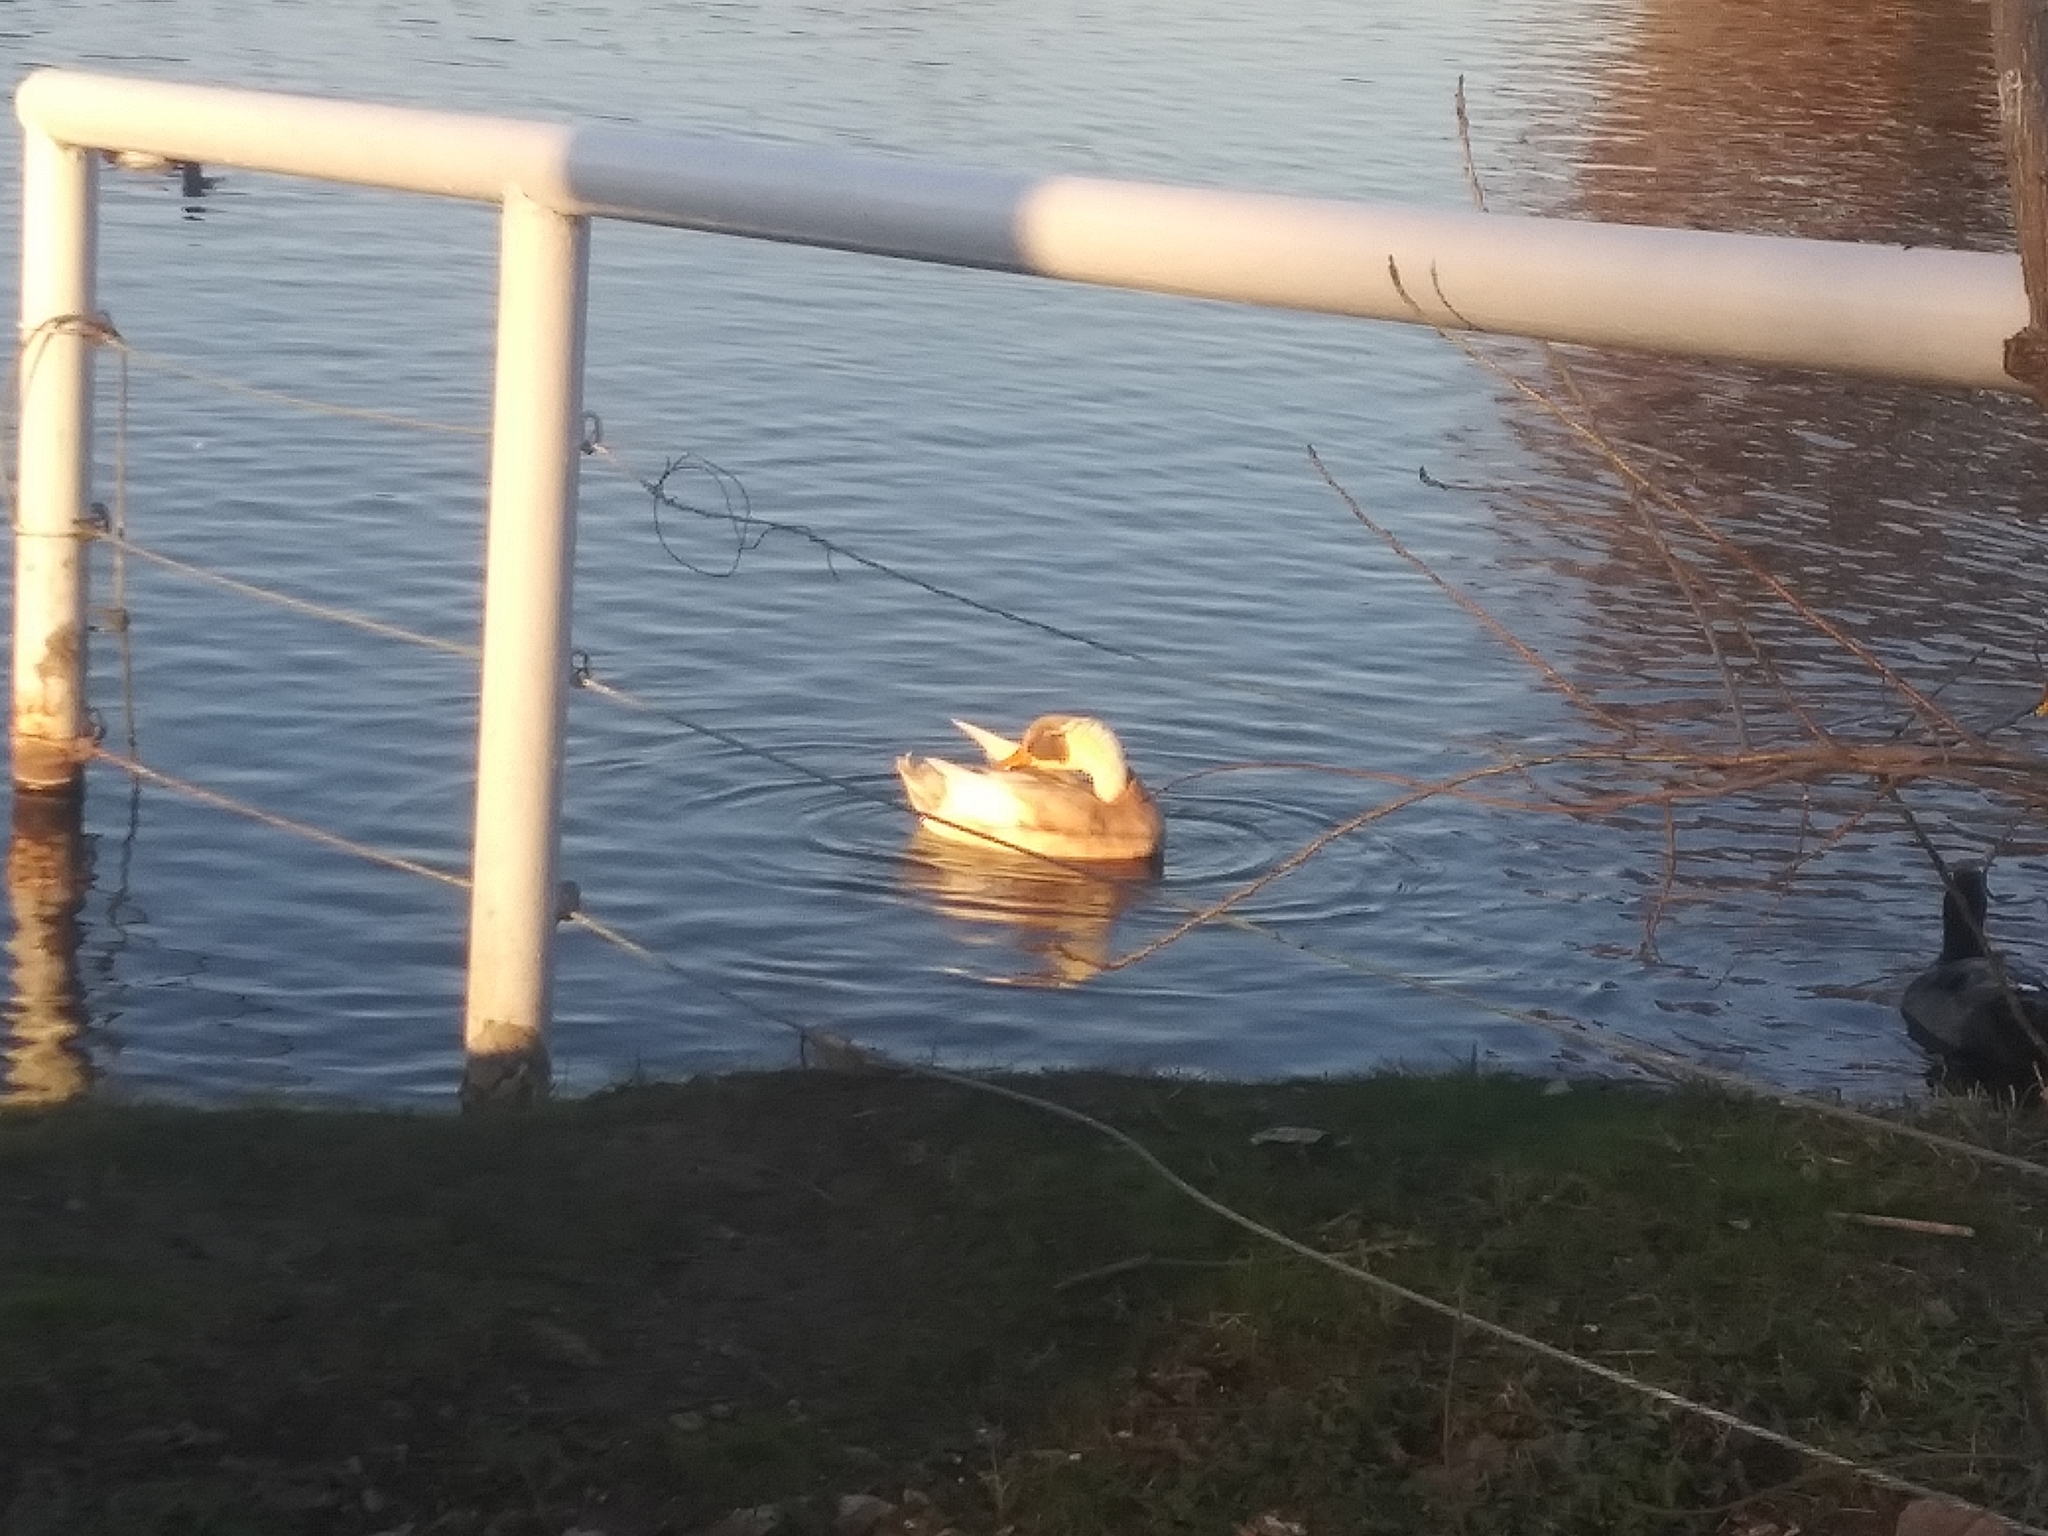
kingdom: Animalia
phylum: Chordata
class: Aves
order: Anseriformes
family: Anatidae
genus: Anas
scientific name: Anas platyrhynchos
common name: Mallard
